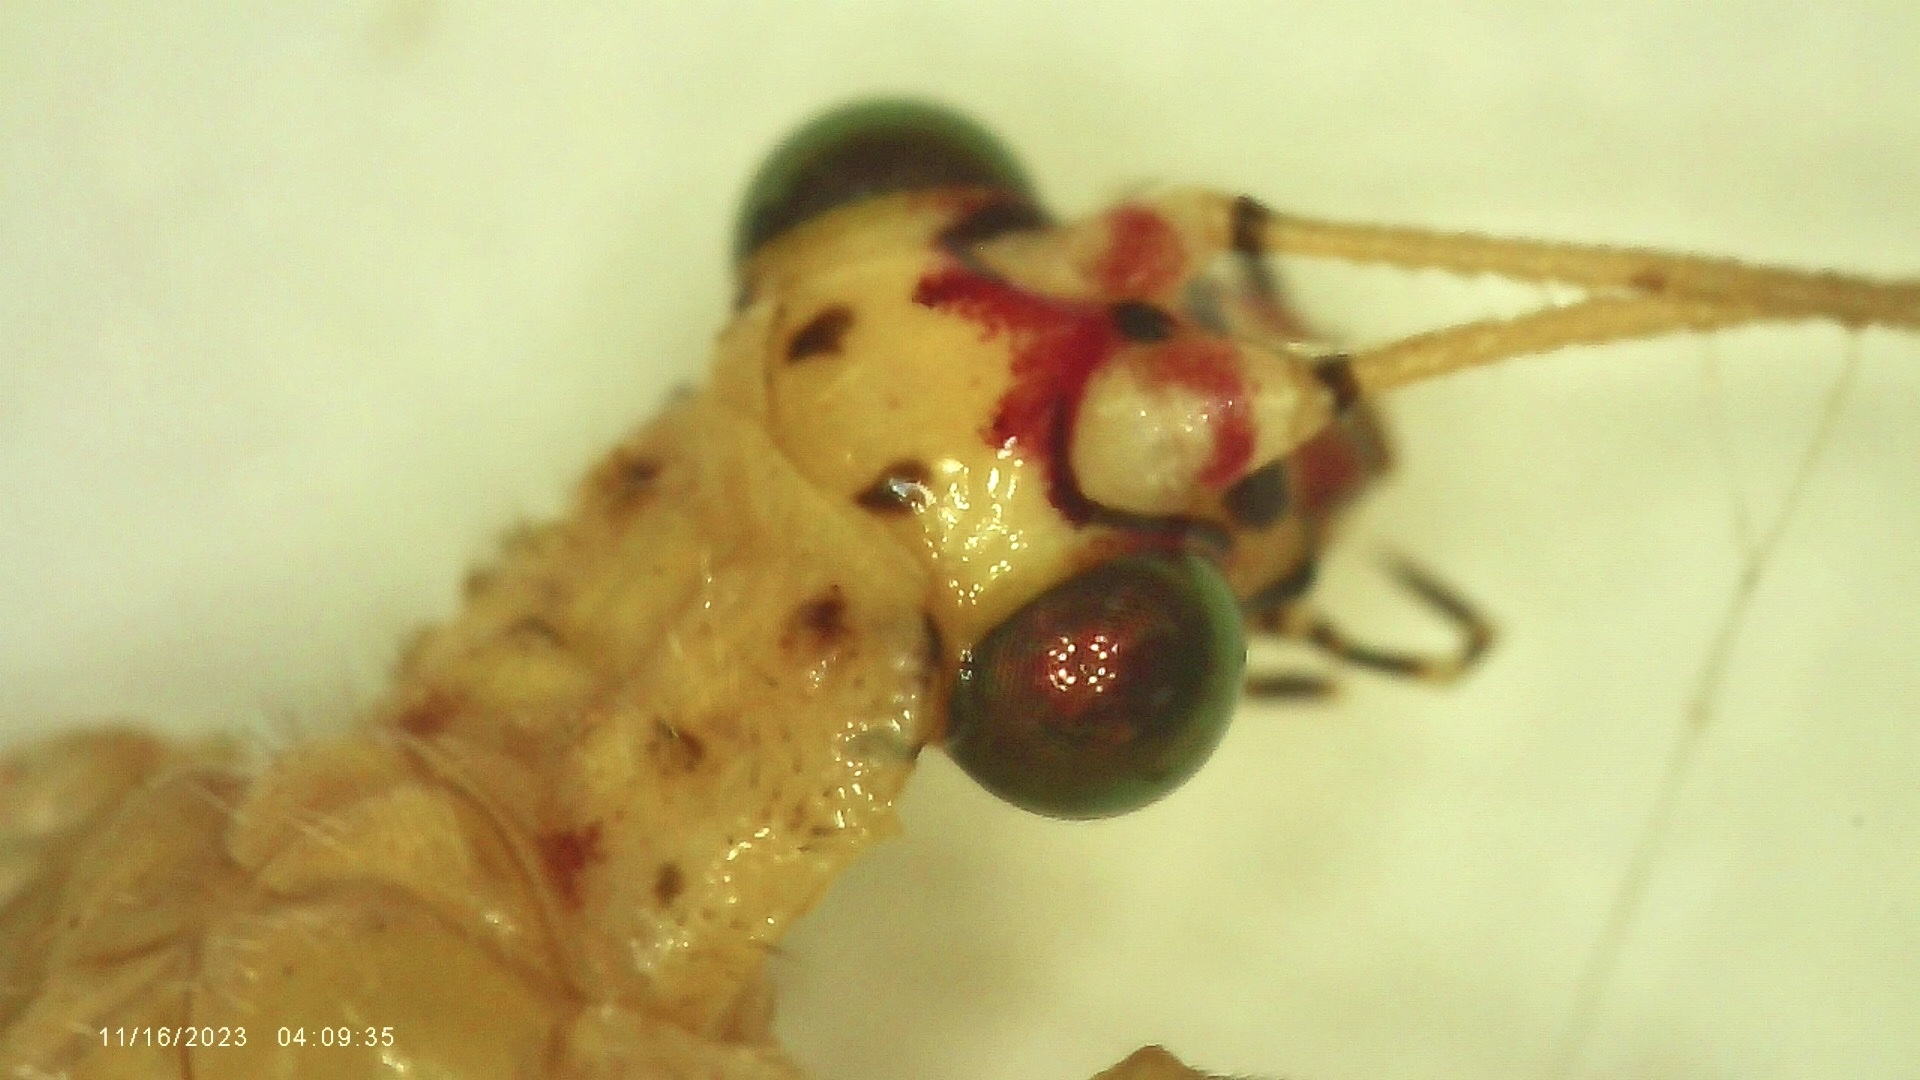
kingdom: Animalia
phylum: Arthropoda
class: Insecta
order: Neuroptera
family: Chrysopidae
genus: Chrysopa
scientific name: Chrysopa oculata
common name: Golden-eyed lacewing
